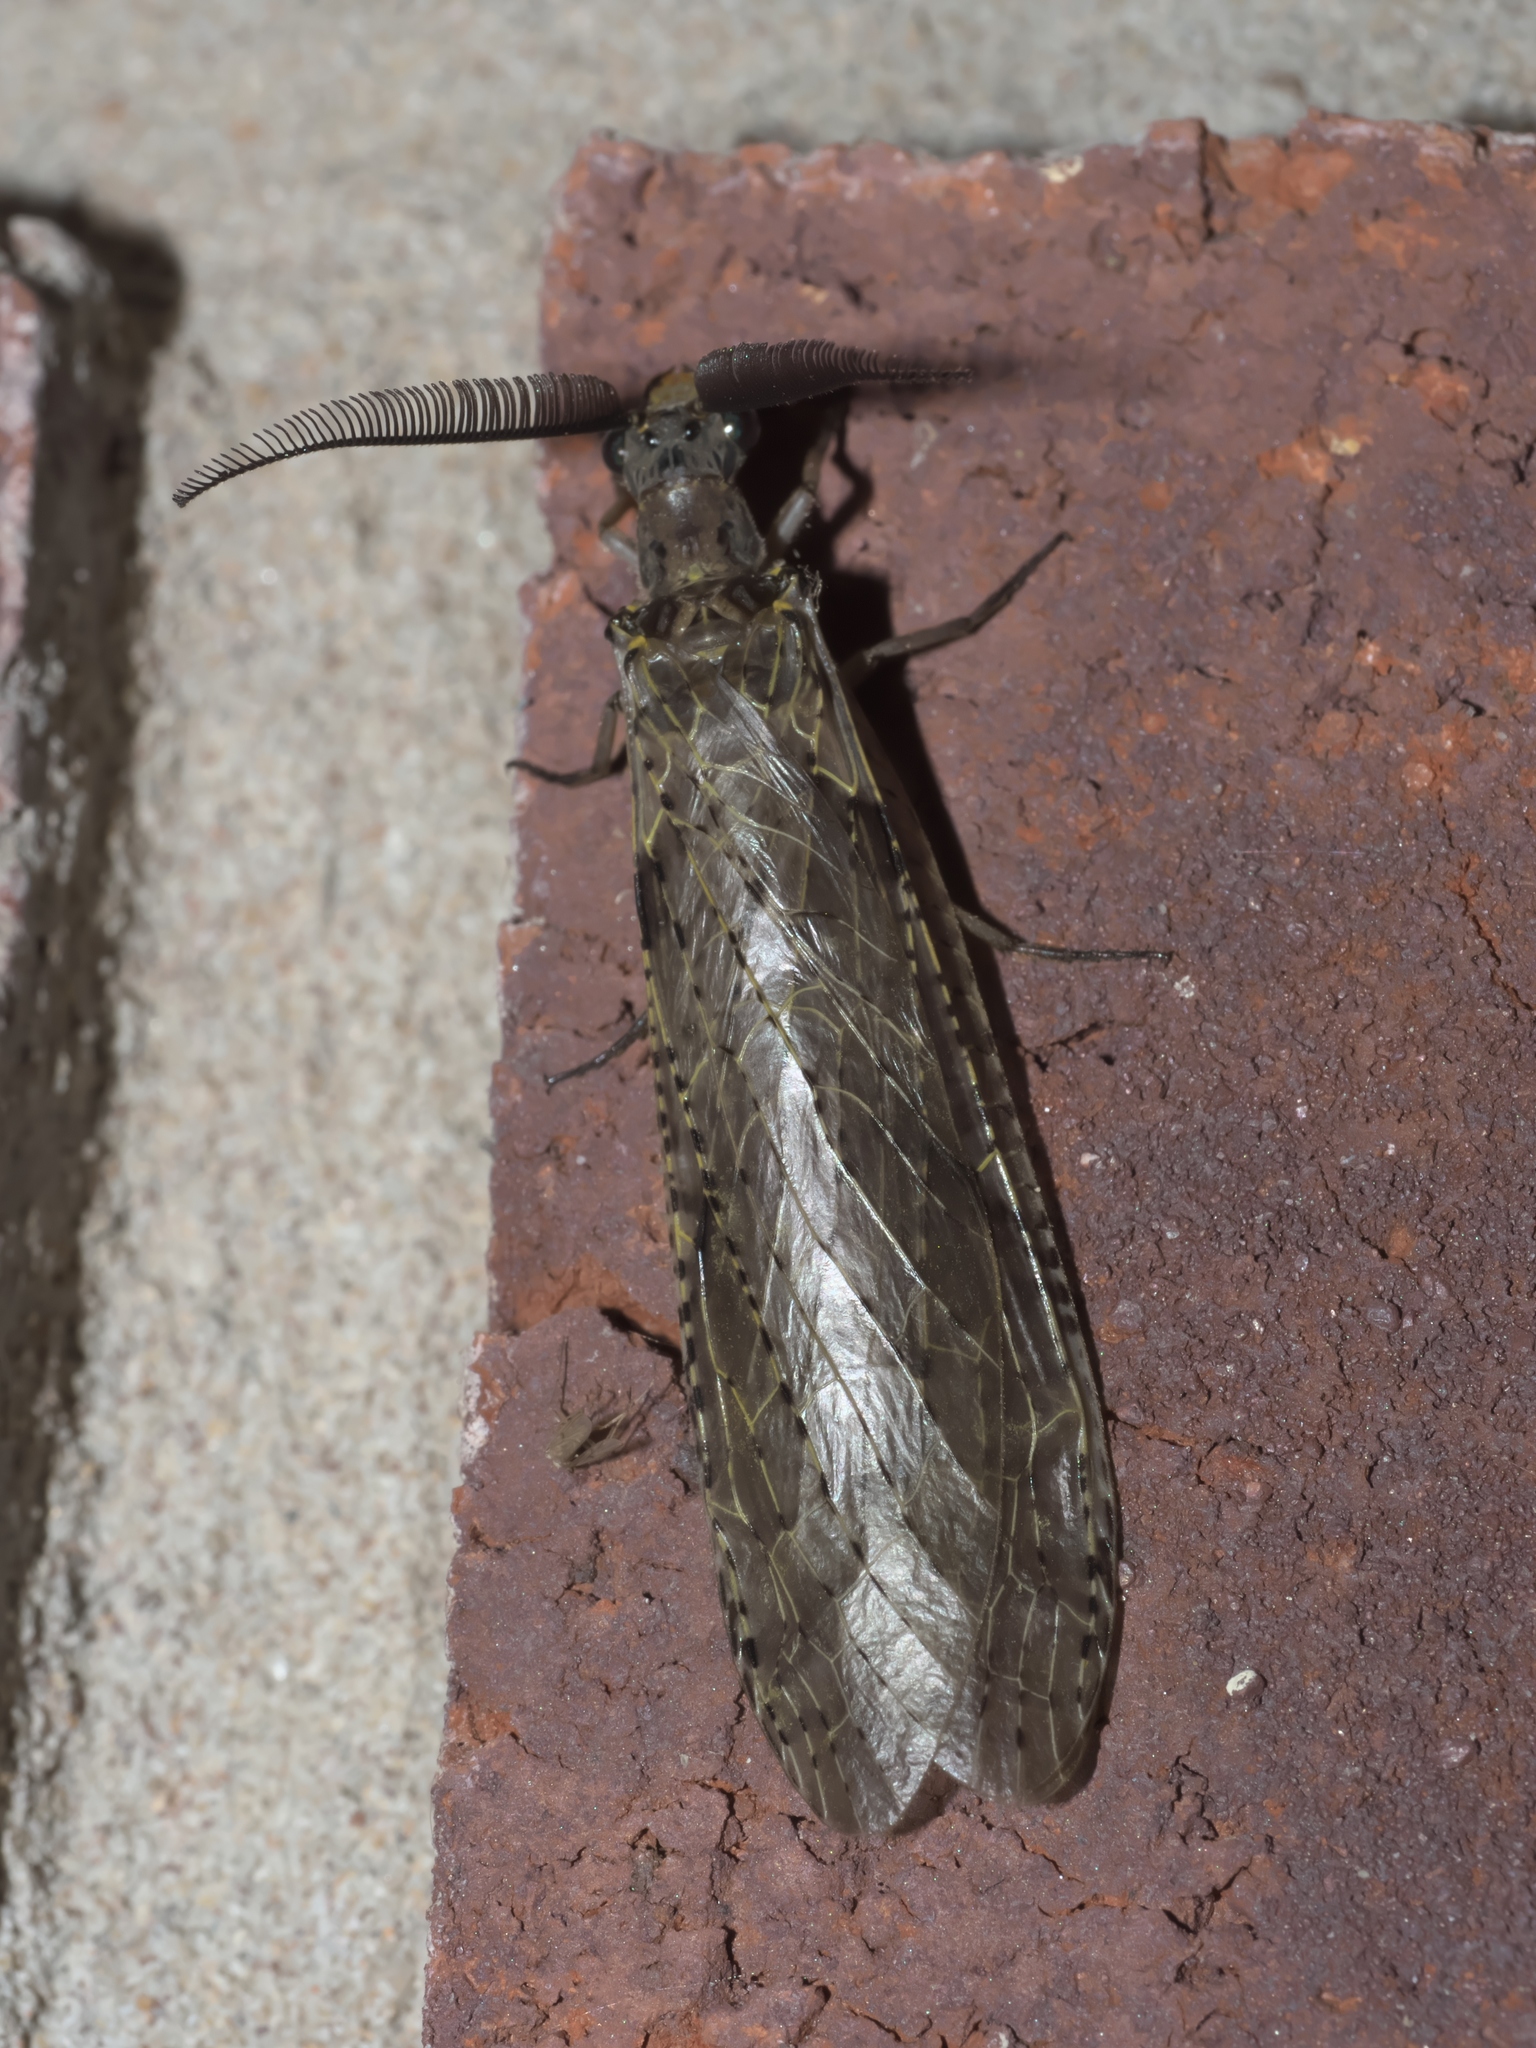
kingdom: Animalia
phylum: Arthropoda
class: Insecta
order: Megaloptera
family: Corydalidae
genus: Chauliodes
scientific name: Chauliodes rastricornis
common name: Spring fishfly
